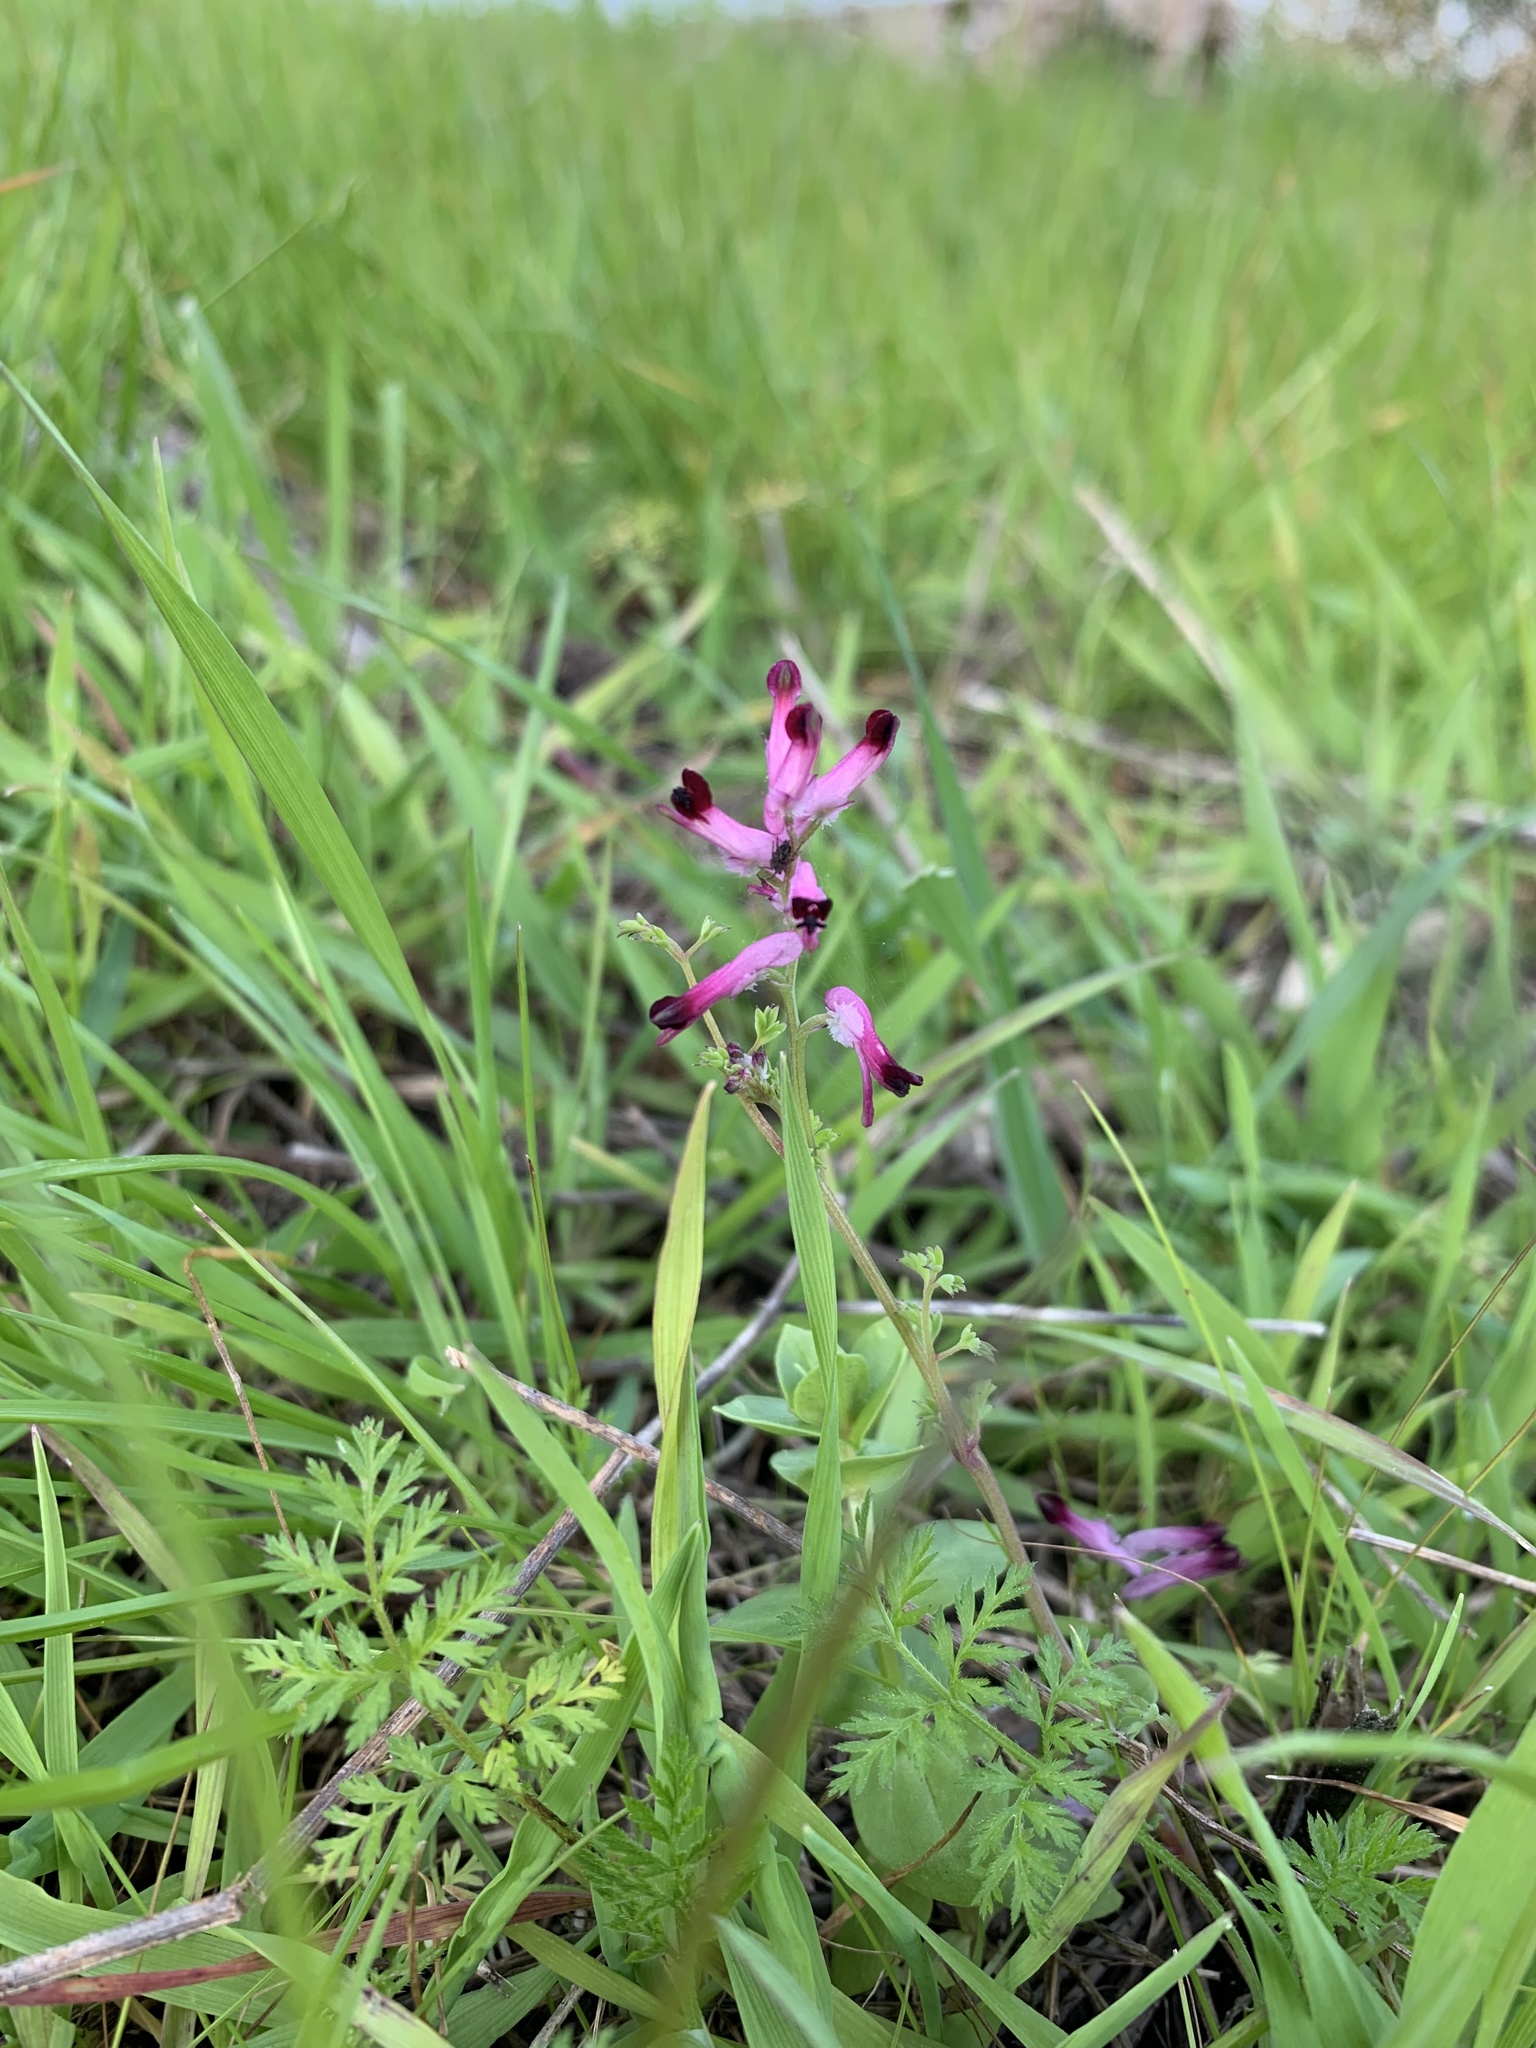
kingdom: Plantae
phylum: Tracheophyta
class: Magnoliopsida
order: Ranunculales
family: Papaveraceae
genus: Fumaria
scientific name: Fumaria muralis
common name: Common ramping-fumitory
